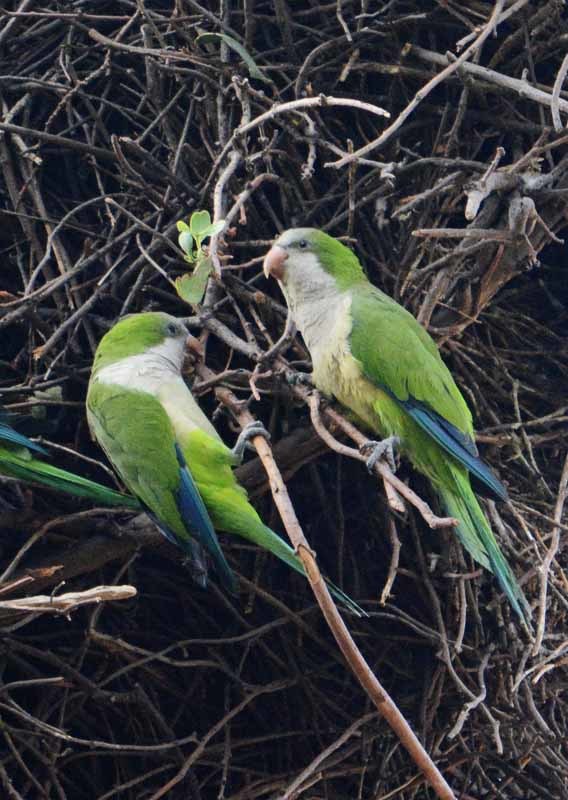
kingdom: Animalia
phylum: Chordata
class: Aves
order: Psittaciformes
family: Psittacidae
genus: Myiopsitta
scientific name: Myiopsitta monachus
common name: Monk parakeet
